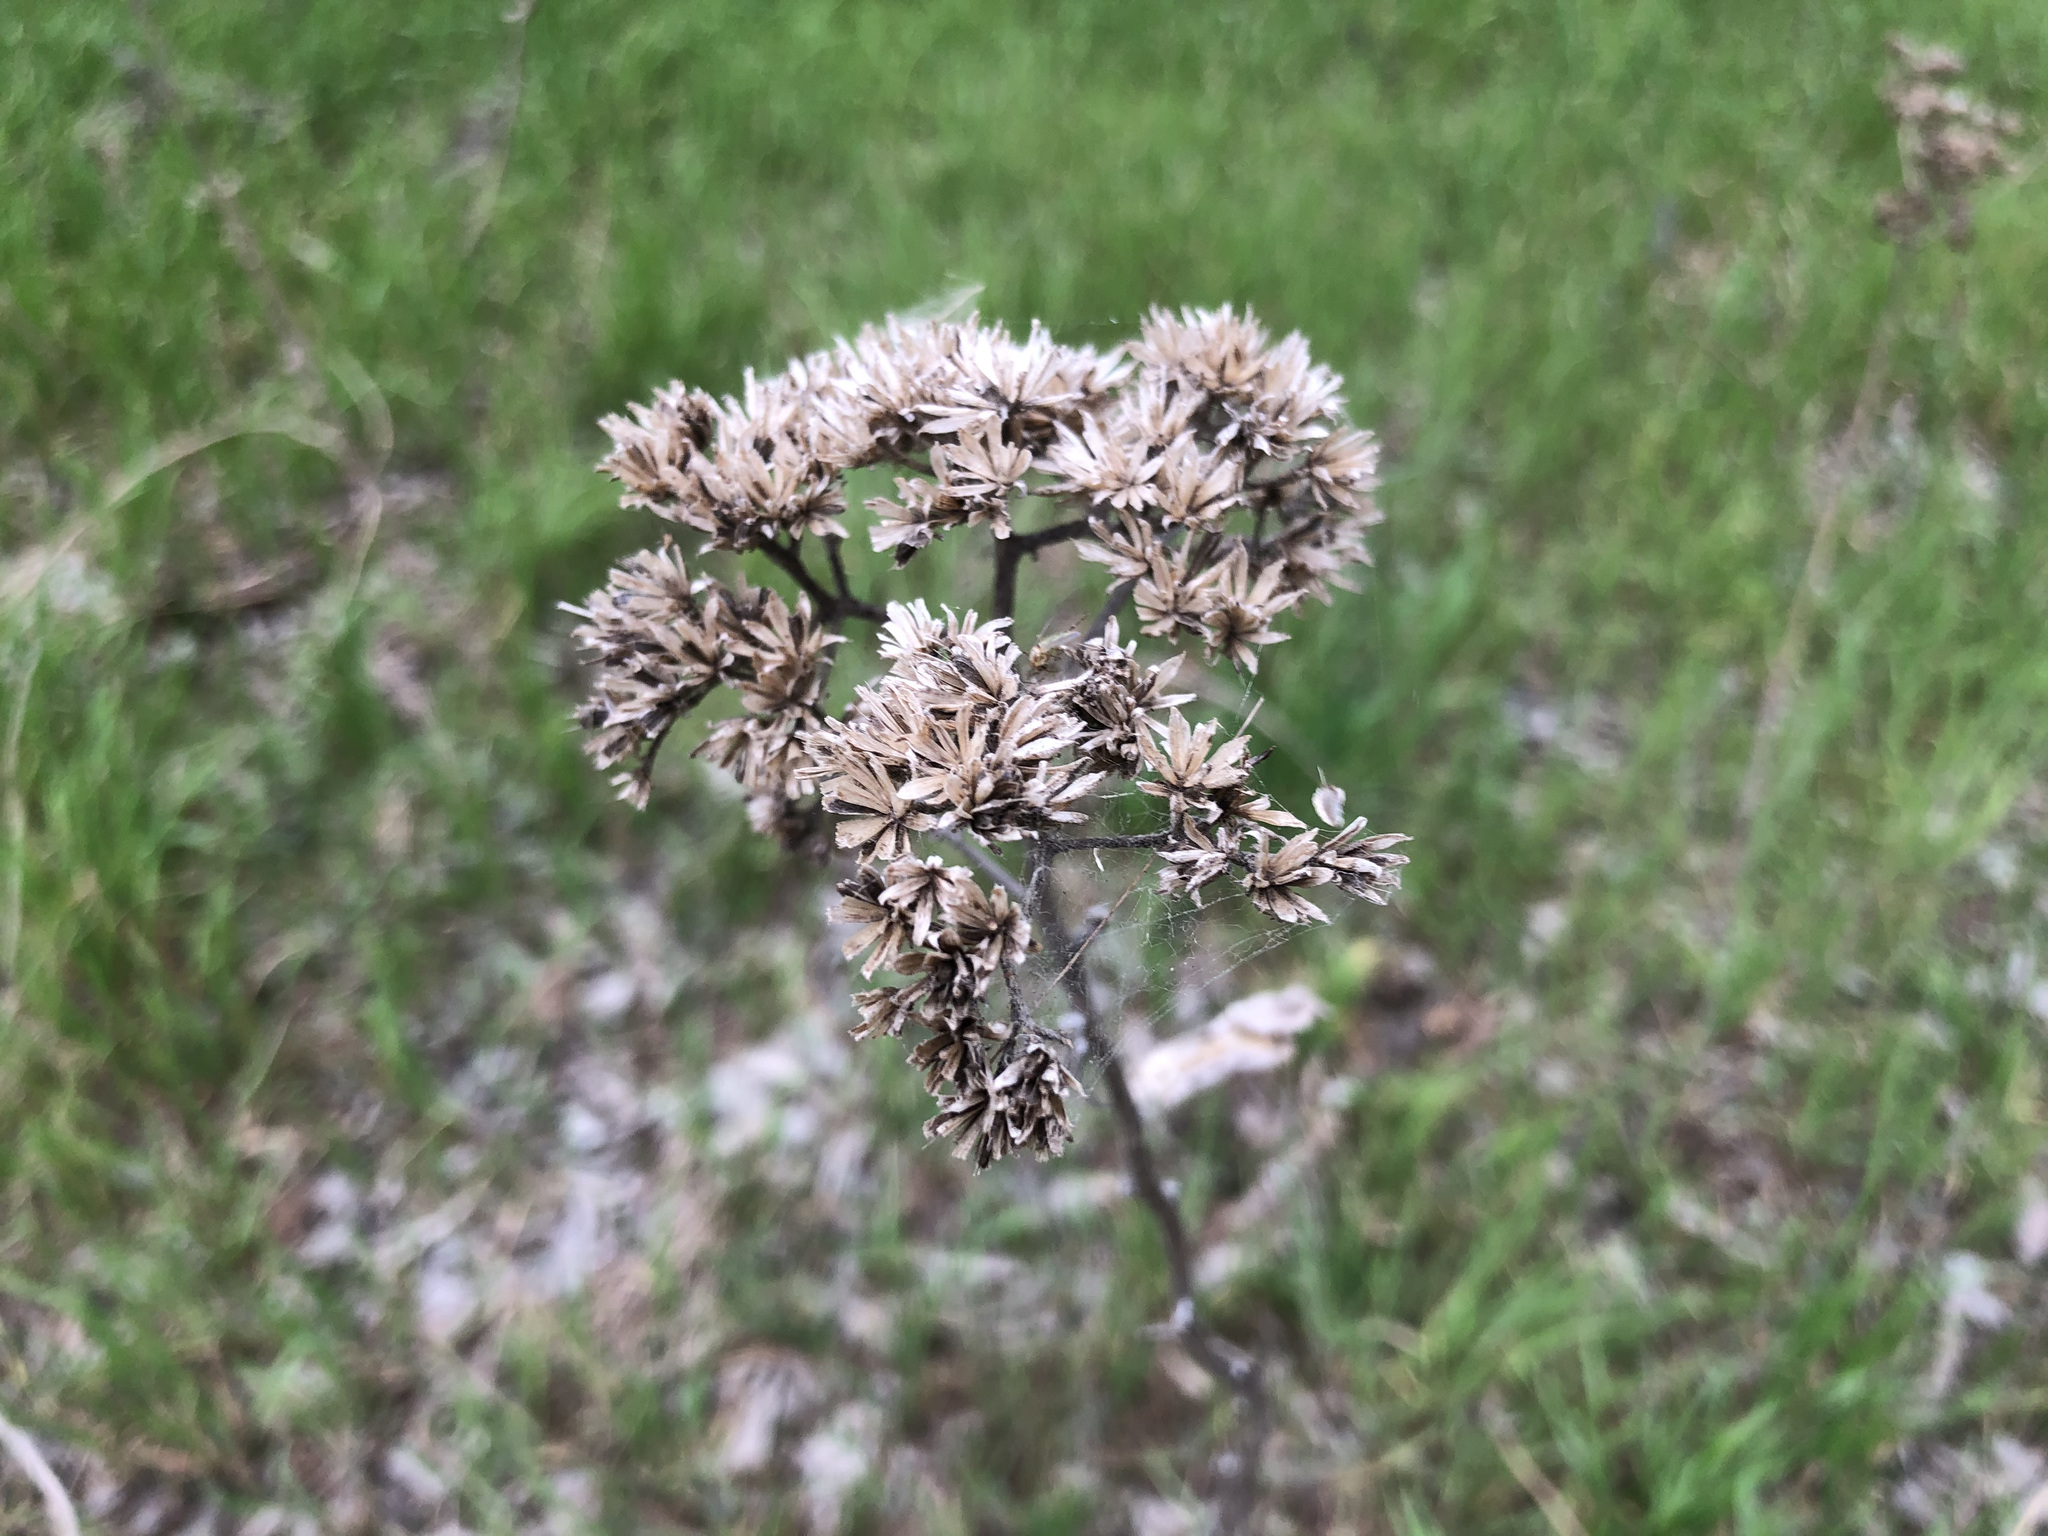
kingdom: Plantae
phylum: Tracheophyta
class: Magnoliopsida
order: Asterales
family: Asteraceae
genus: Verbesina
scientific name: Verbesina virginica
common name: Frostweed
